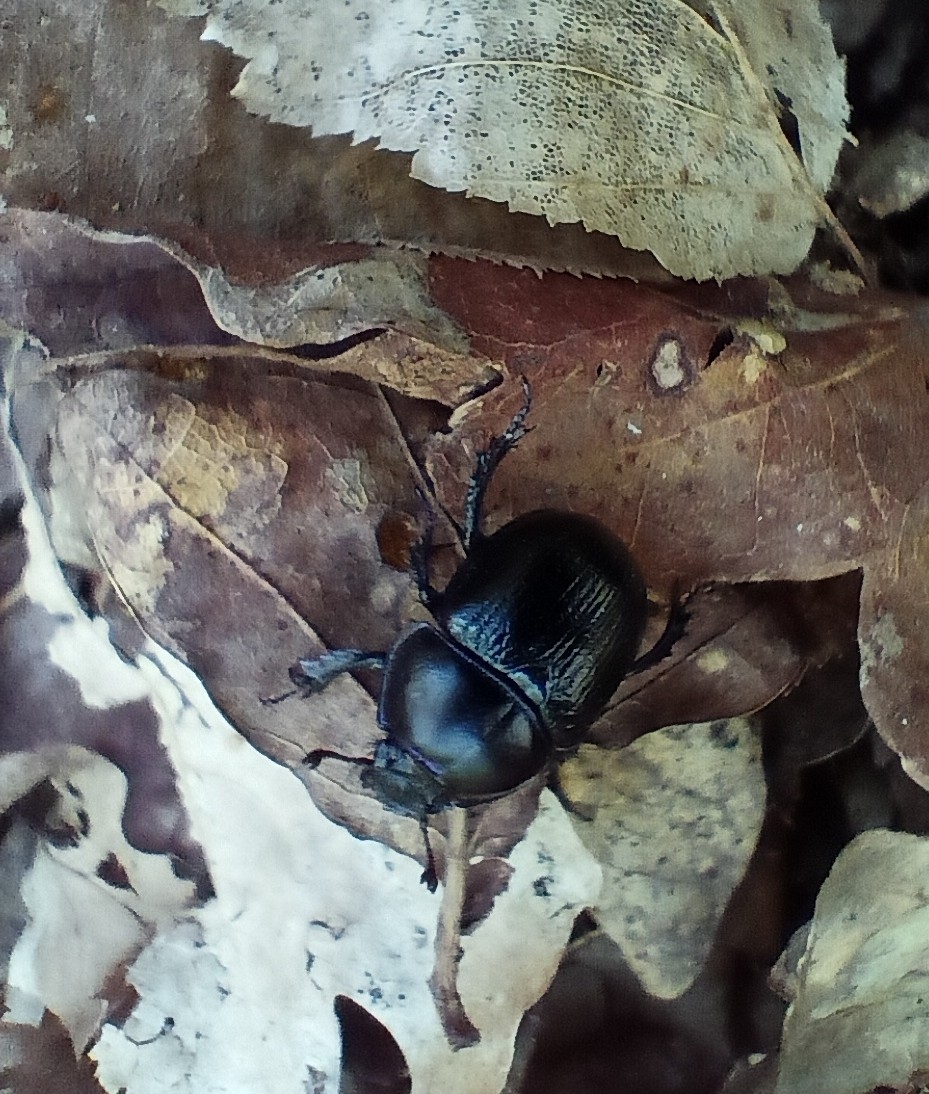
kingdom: Animalia
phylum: Arthropoda
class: Insecta
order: Coleoptera
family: Geotrupidae
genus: Anoplotrupes
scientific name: Anoplotrupes stercorosus
